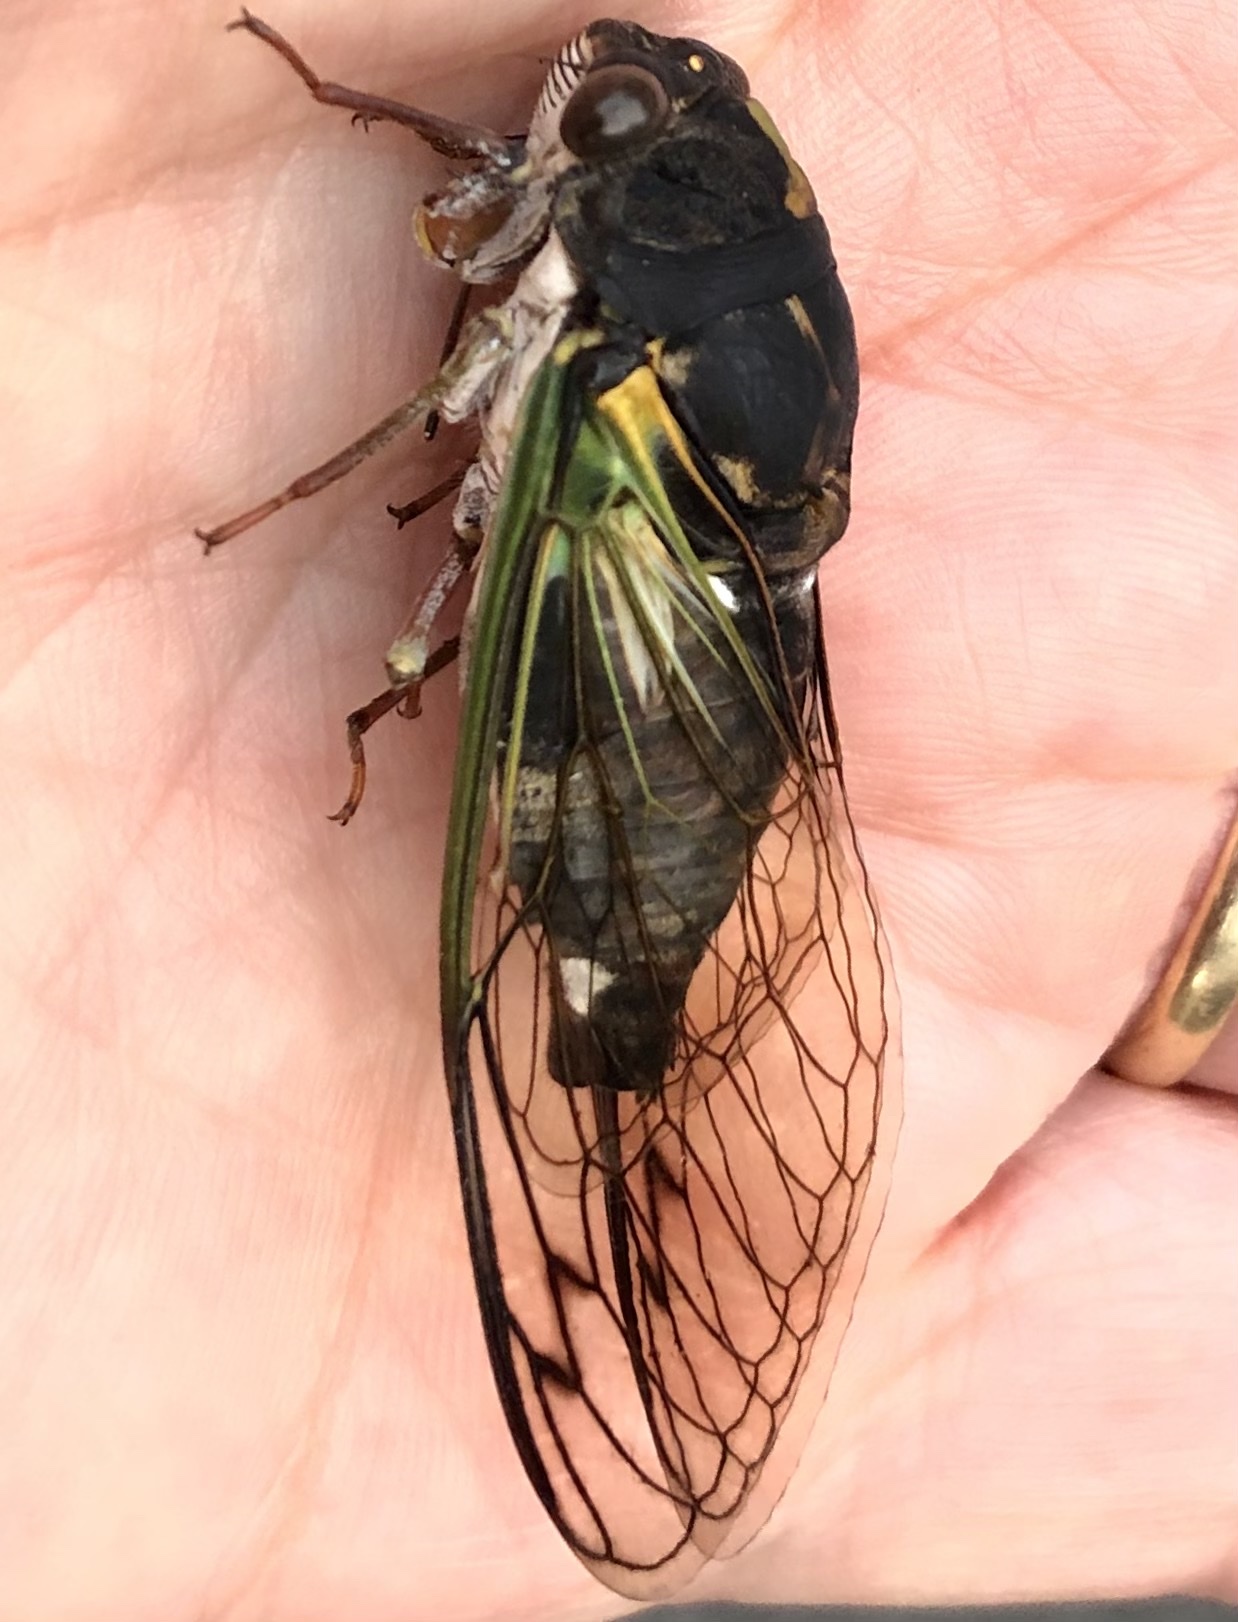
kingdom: Animalia
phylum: Arthropoda
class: Insecta
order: Hemiptera
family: Cicadidae
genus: Neotibicen
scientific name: Neotibicen lyricen
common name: Lyric cicada
